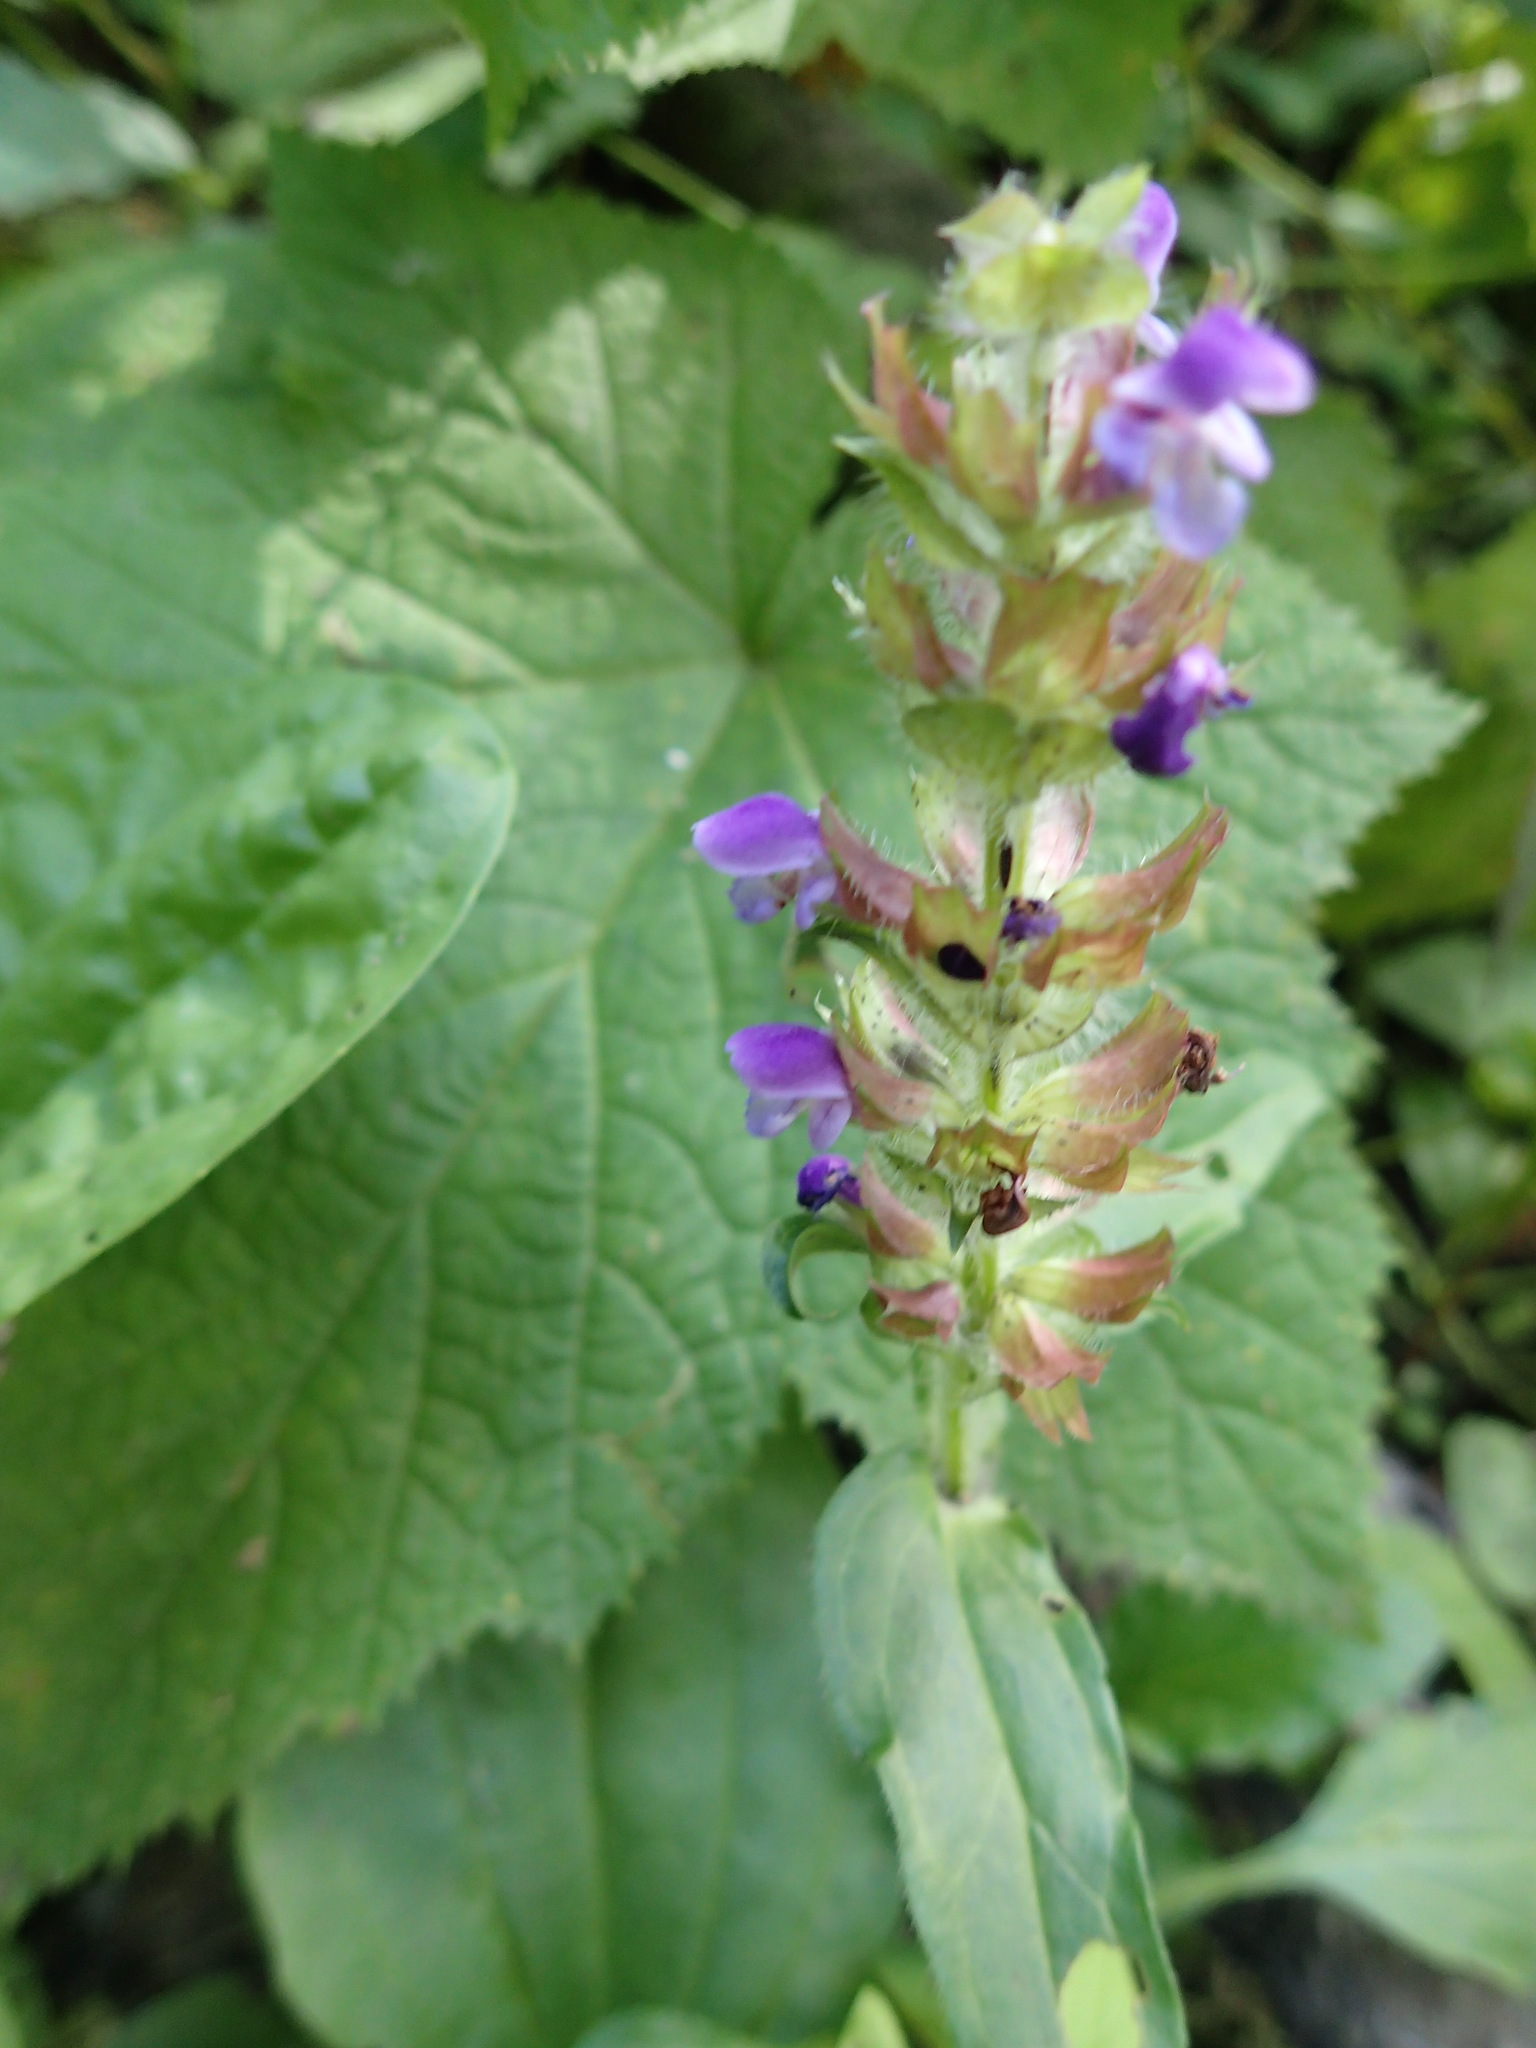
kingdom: Plantae
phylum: Tracheophyta
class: Magnoliopsida
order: Lamiales
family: Lamiaceae
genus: Prunella
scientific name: Prunella vulgaris
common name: Heal-all
